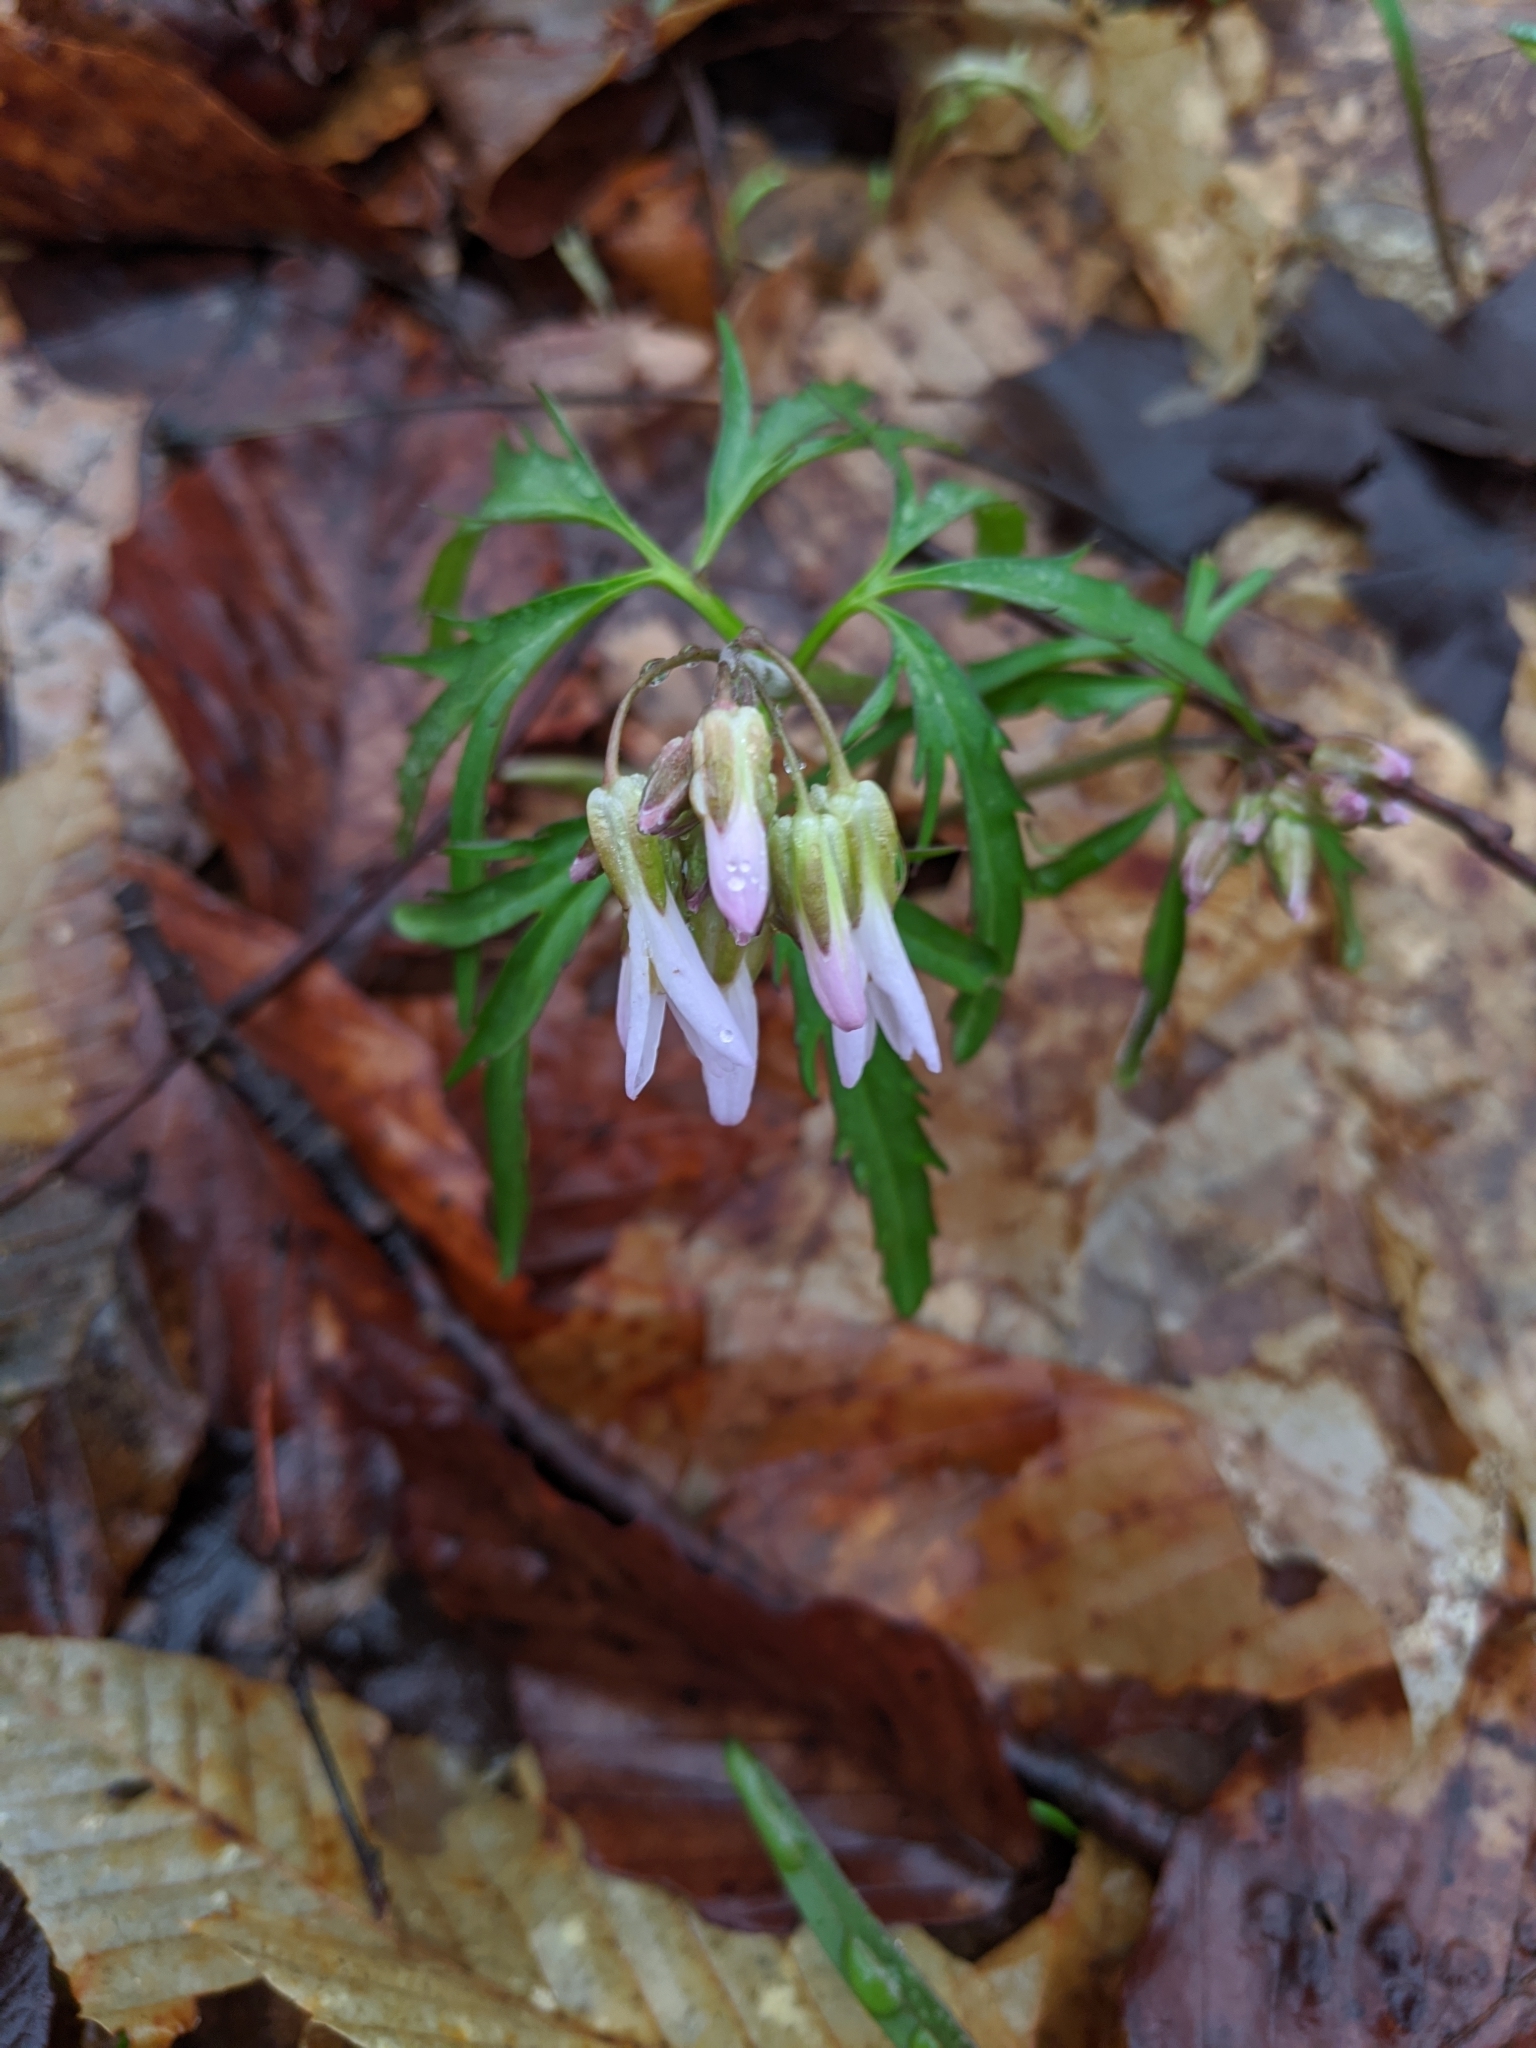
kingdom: Plantae
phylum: Tracheophyta
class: Magnoliopsida
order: Brassicales
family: Brassicaceae
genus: Cardamine
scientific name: Cardamine concatenata
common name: Cut-leaf toothcup
